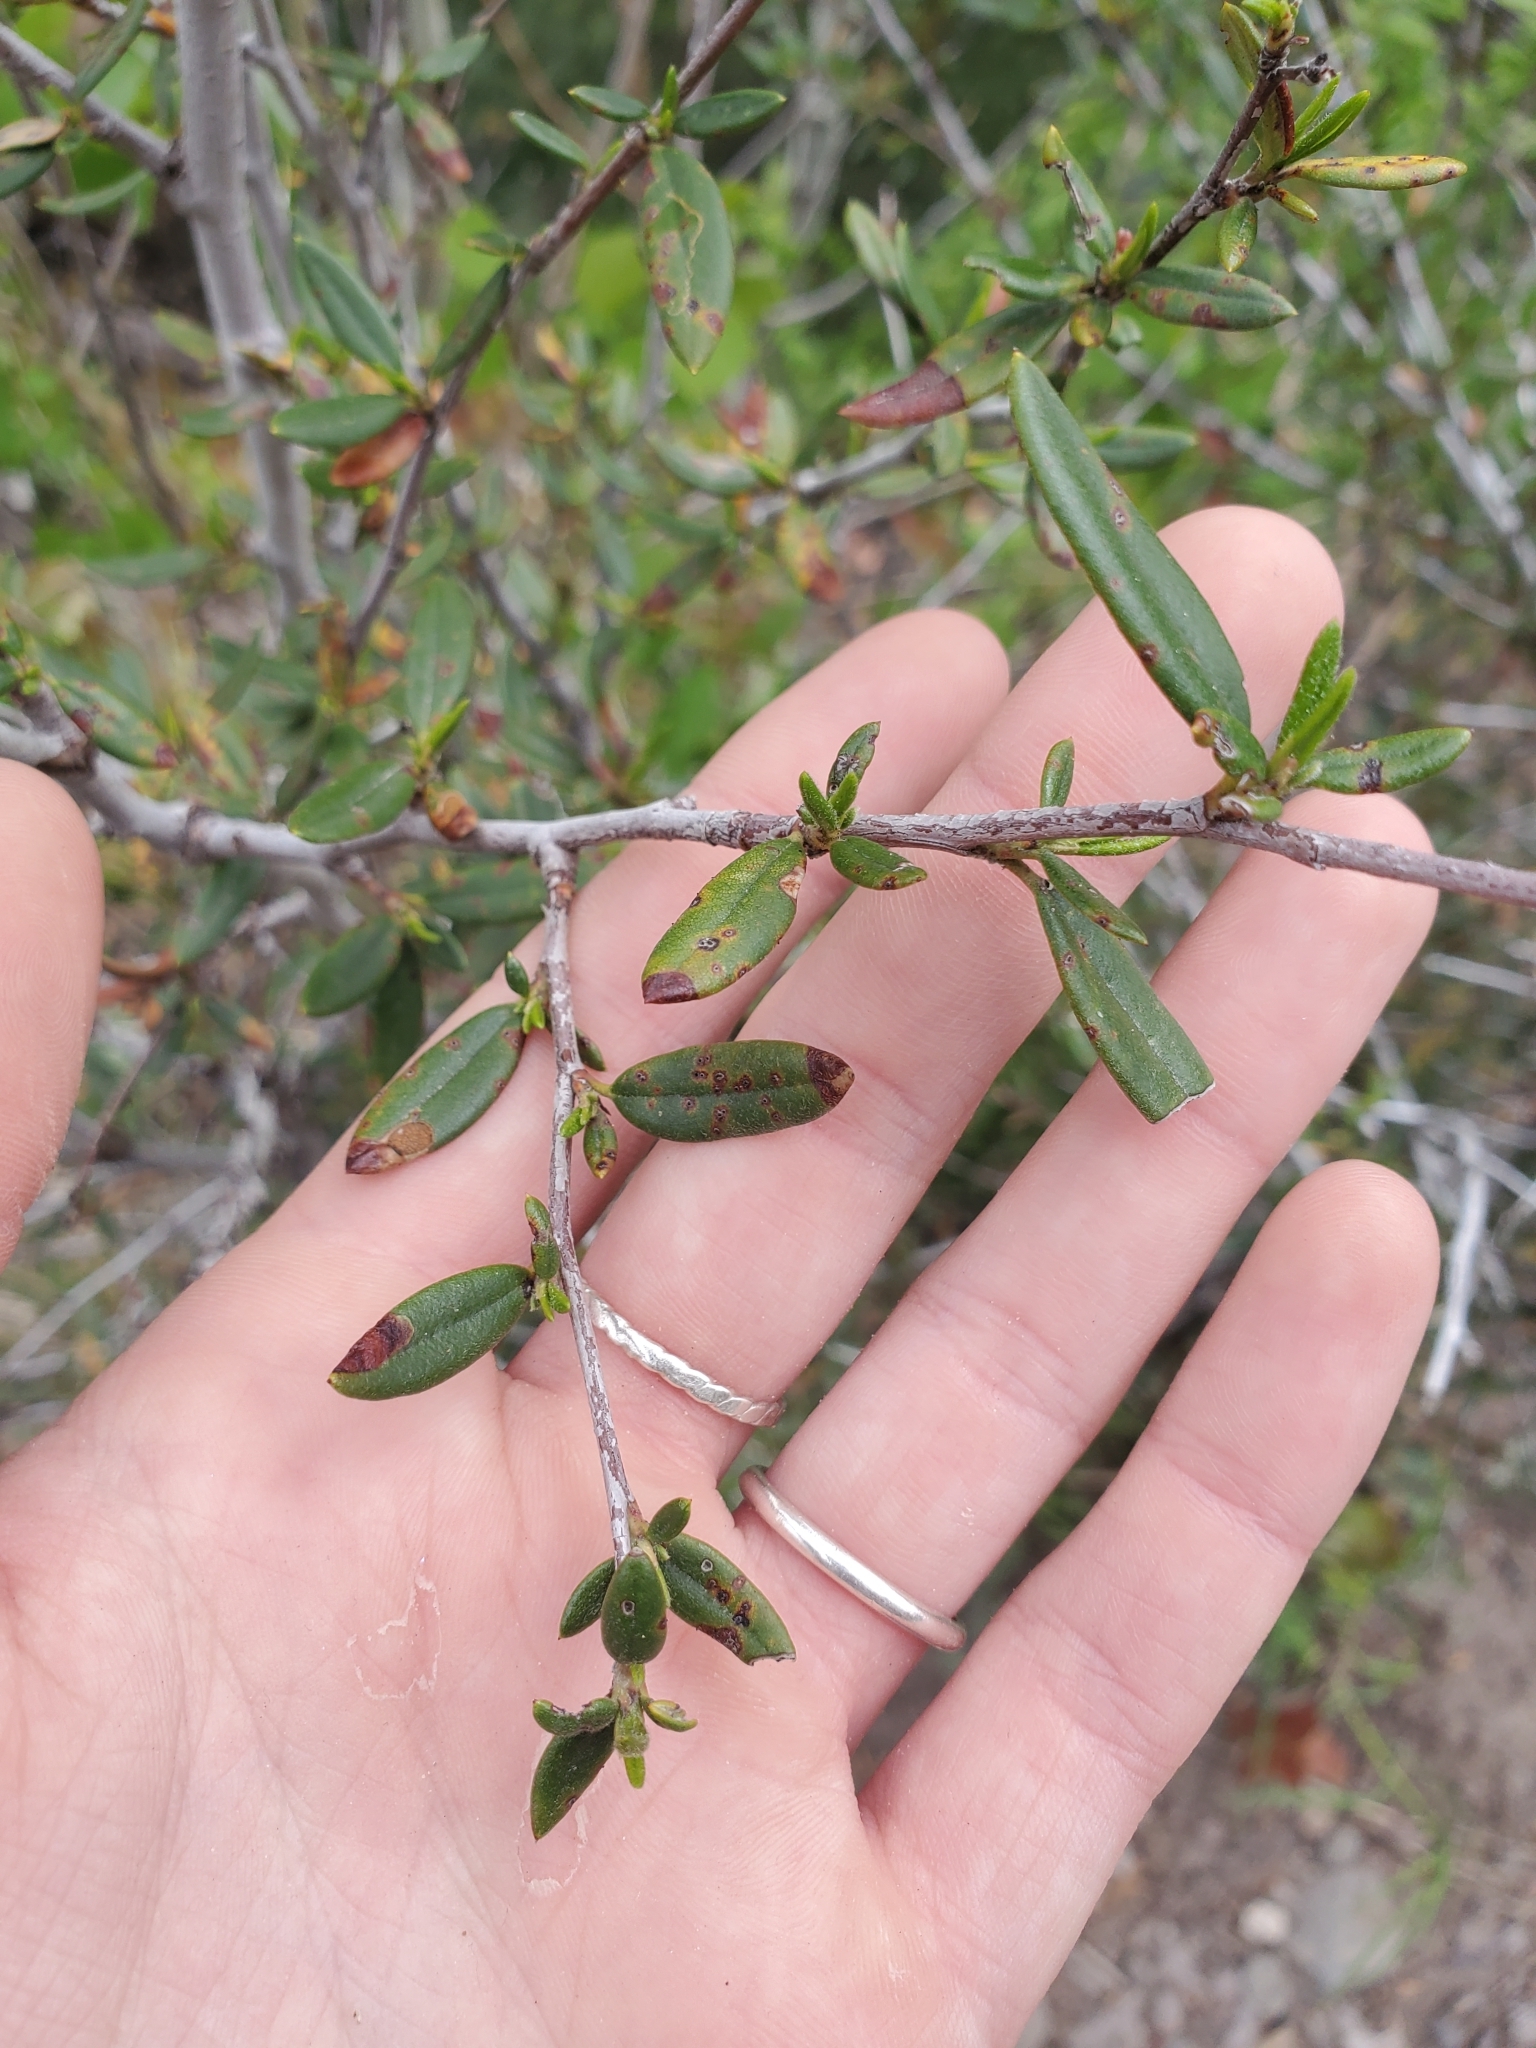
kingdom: Plantae
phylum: Tracheophyta
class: Magnoliopsida
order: Rosales
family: Rosaceae
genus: Cercocarpus
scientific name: Cercocarpus ledifolius
